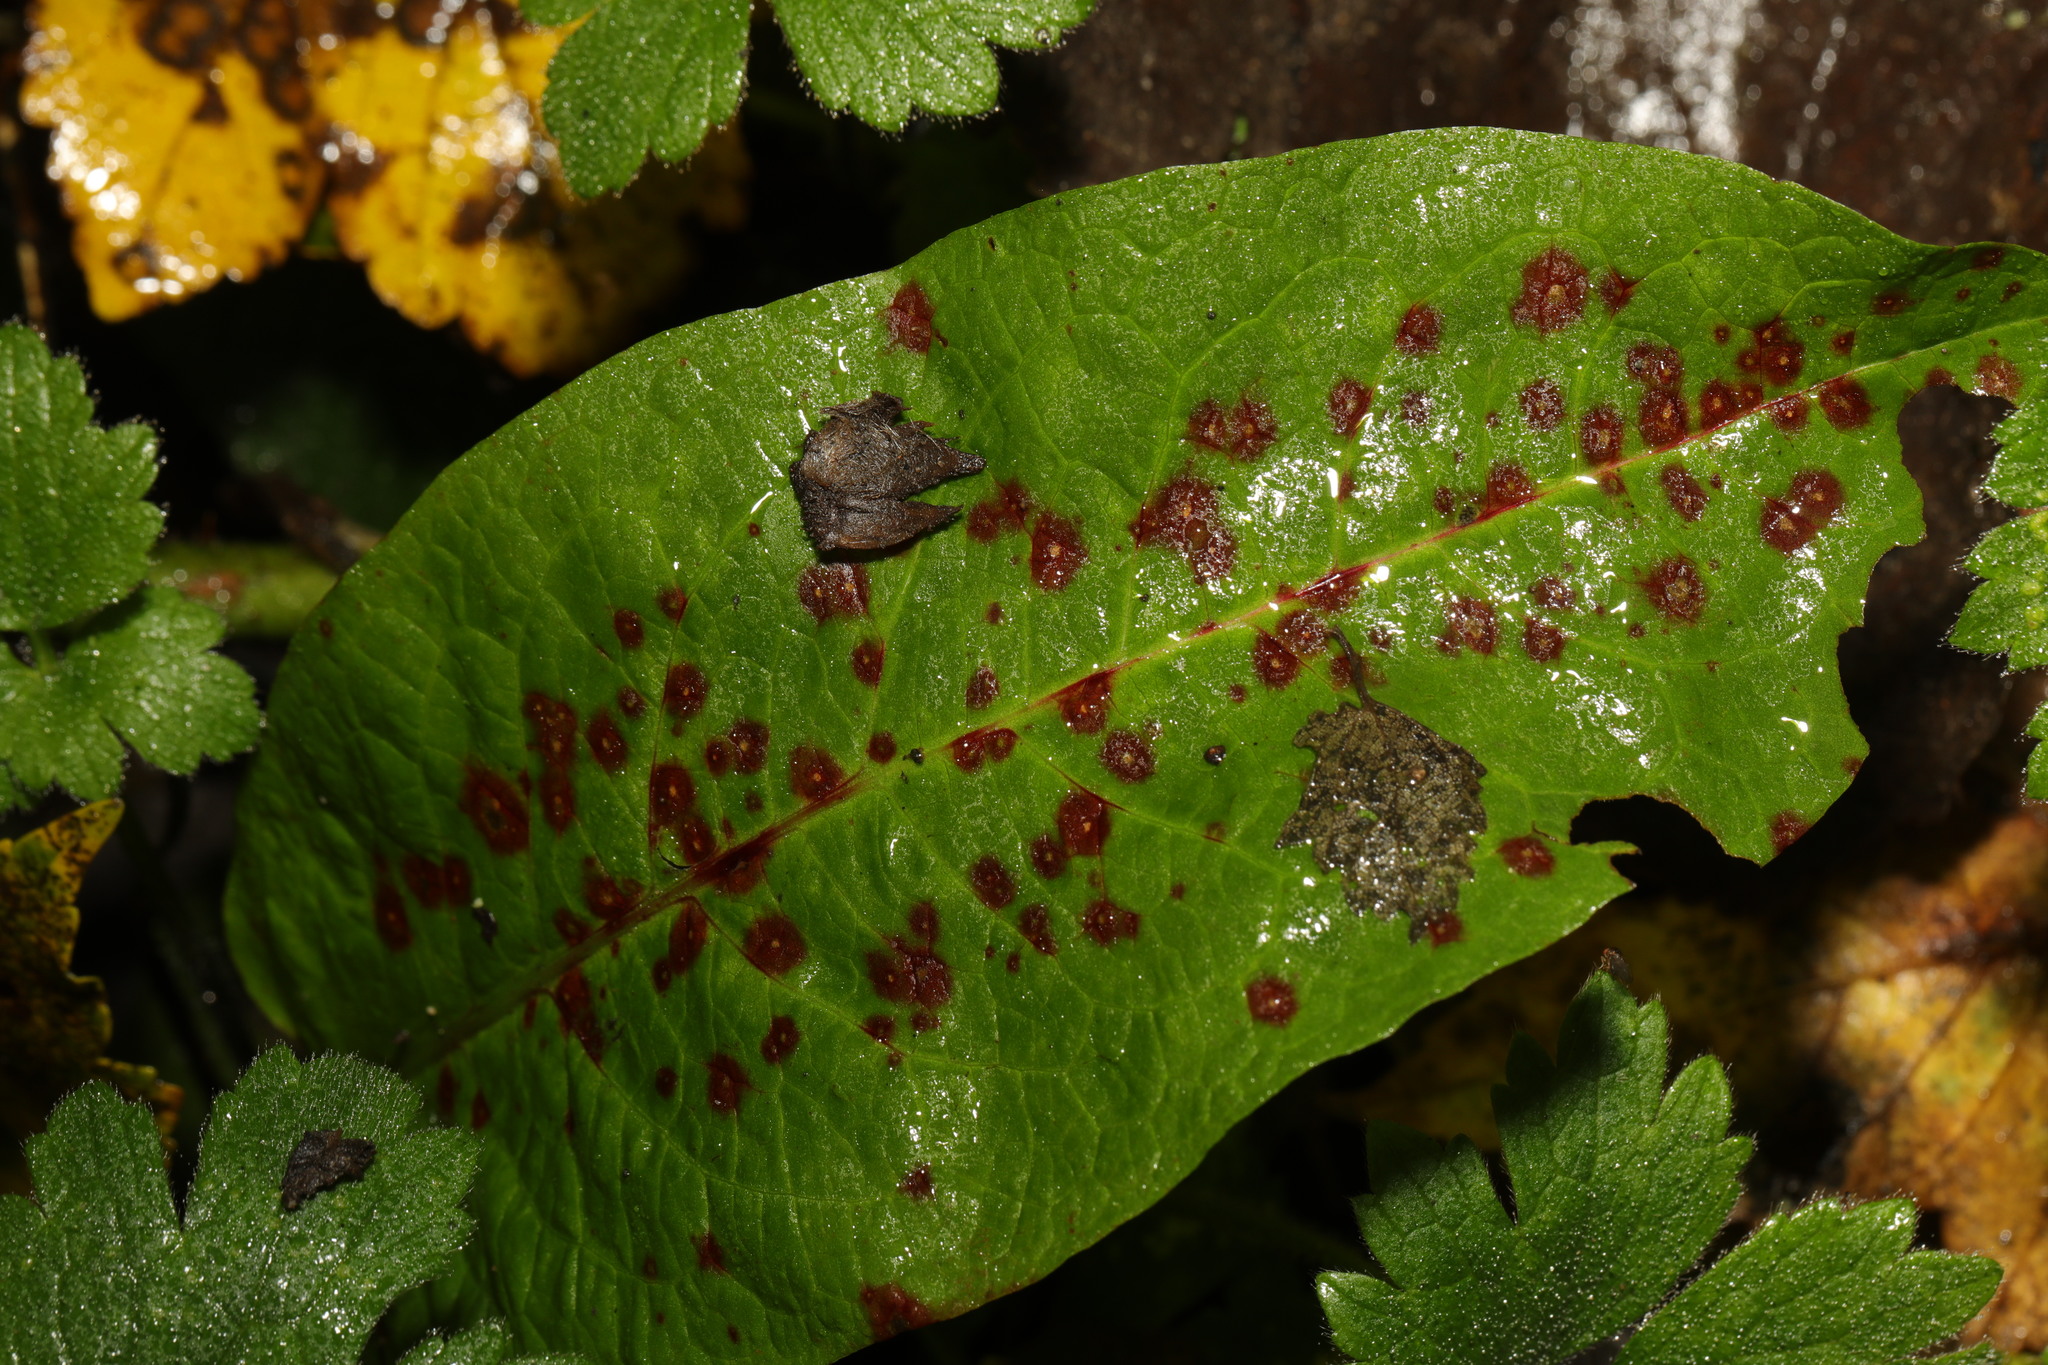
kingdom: Plantae
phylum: Tracheophyta
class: Magnoliopsida
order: Caryophyllales
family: Polygonaceae
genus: Rumex
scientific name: Rumex obtusifolius
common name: Bitter dock
